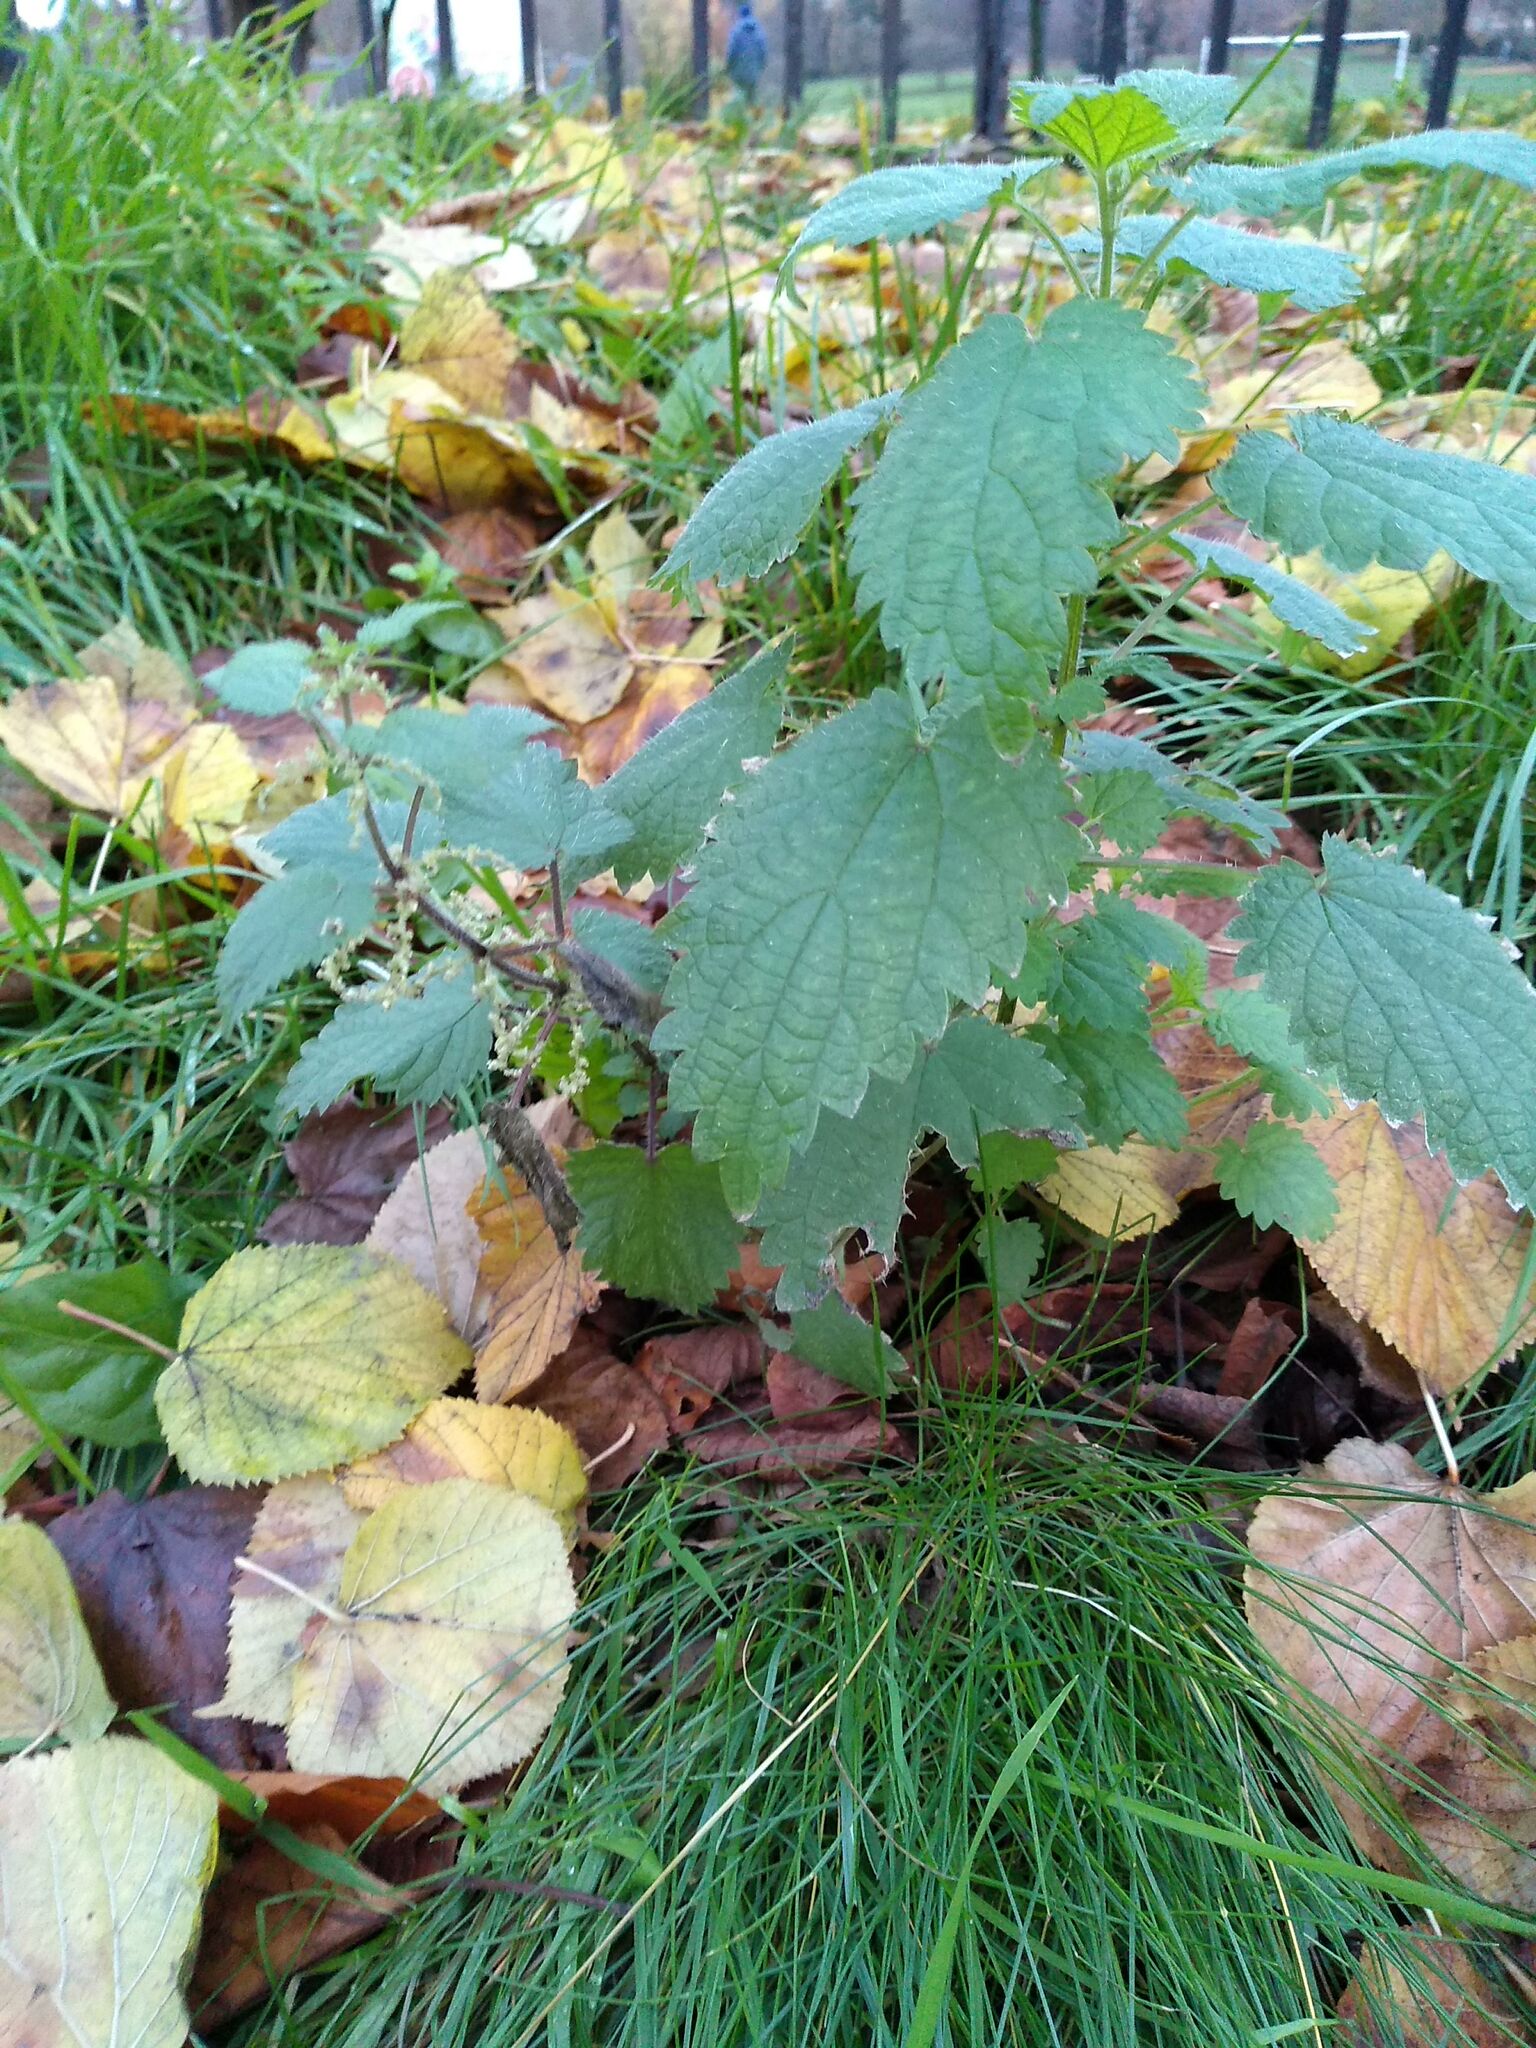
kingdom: Plantae
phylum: Tracheophyta
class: Magnoliopsida
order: Rosales
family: Urticaceae
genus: Urtica
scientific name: Urtica dioica
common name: Common nettle
